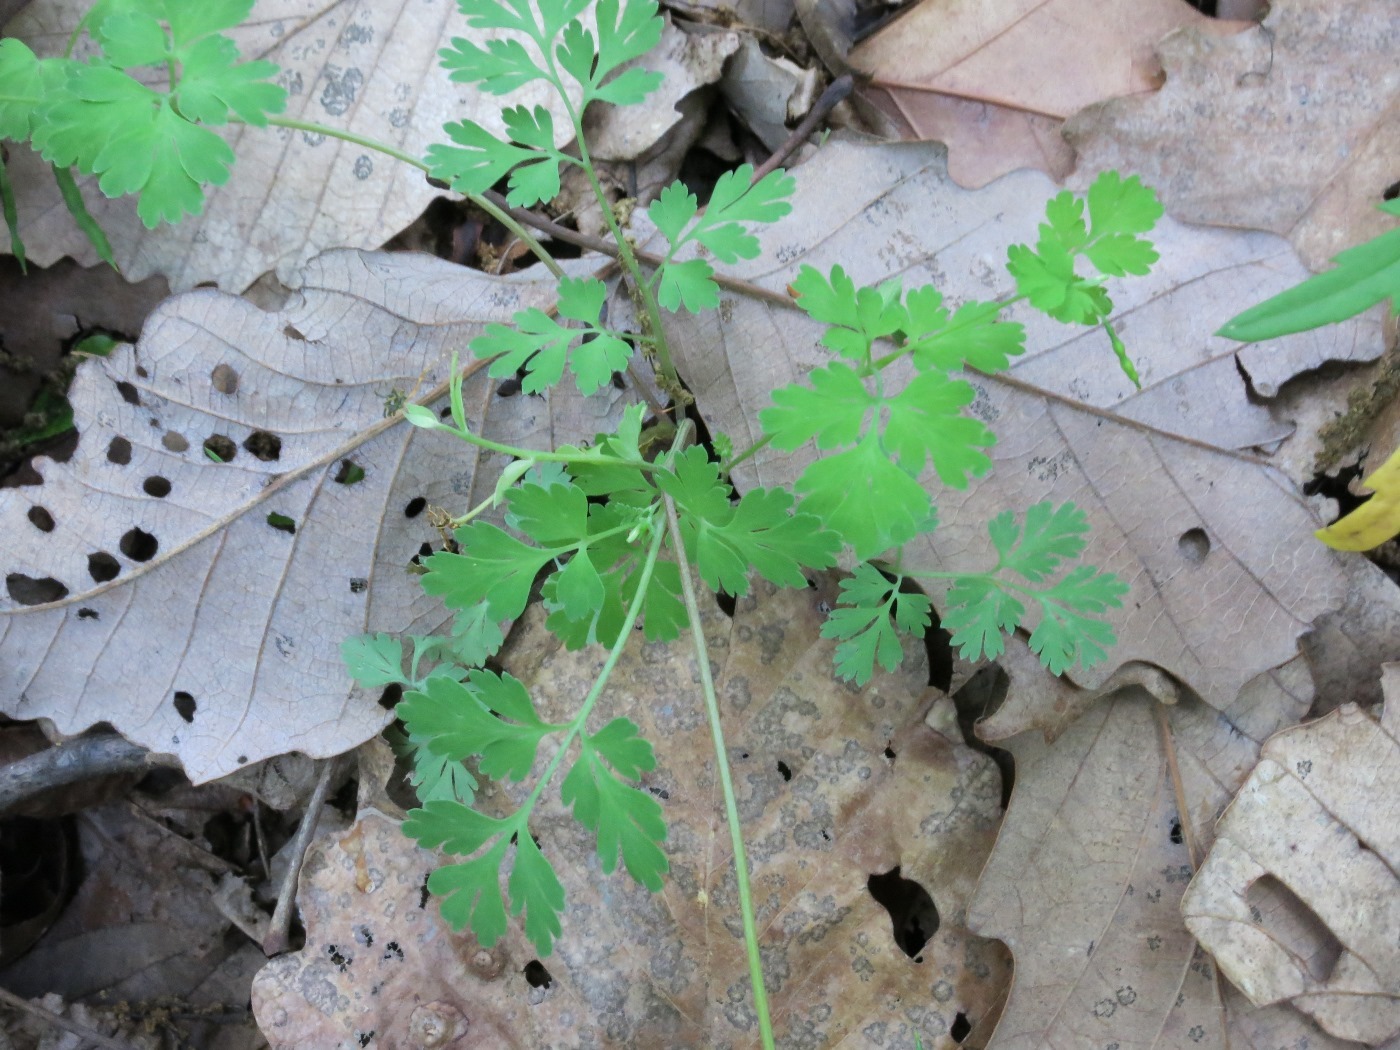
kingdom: Plantae
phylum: Tracheophyta
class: Magnoliopsida
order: Ranunculales
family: Papaveraceae
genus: Corydalis
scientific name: Corydalis flavula
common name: Yellow corydalis
